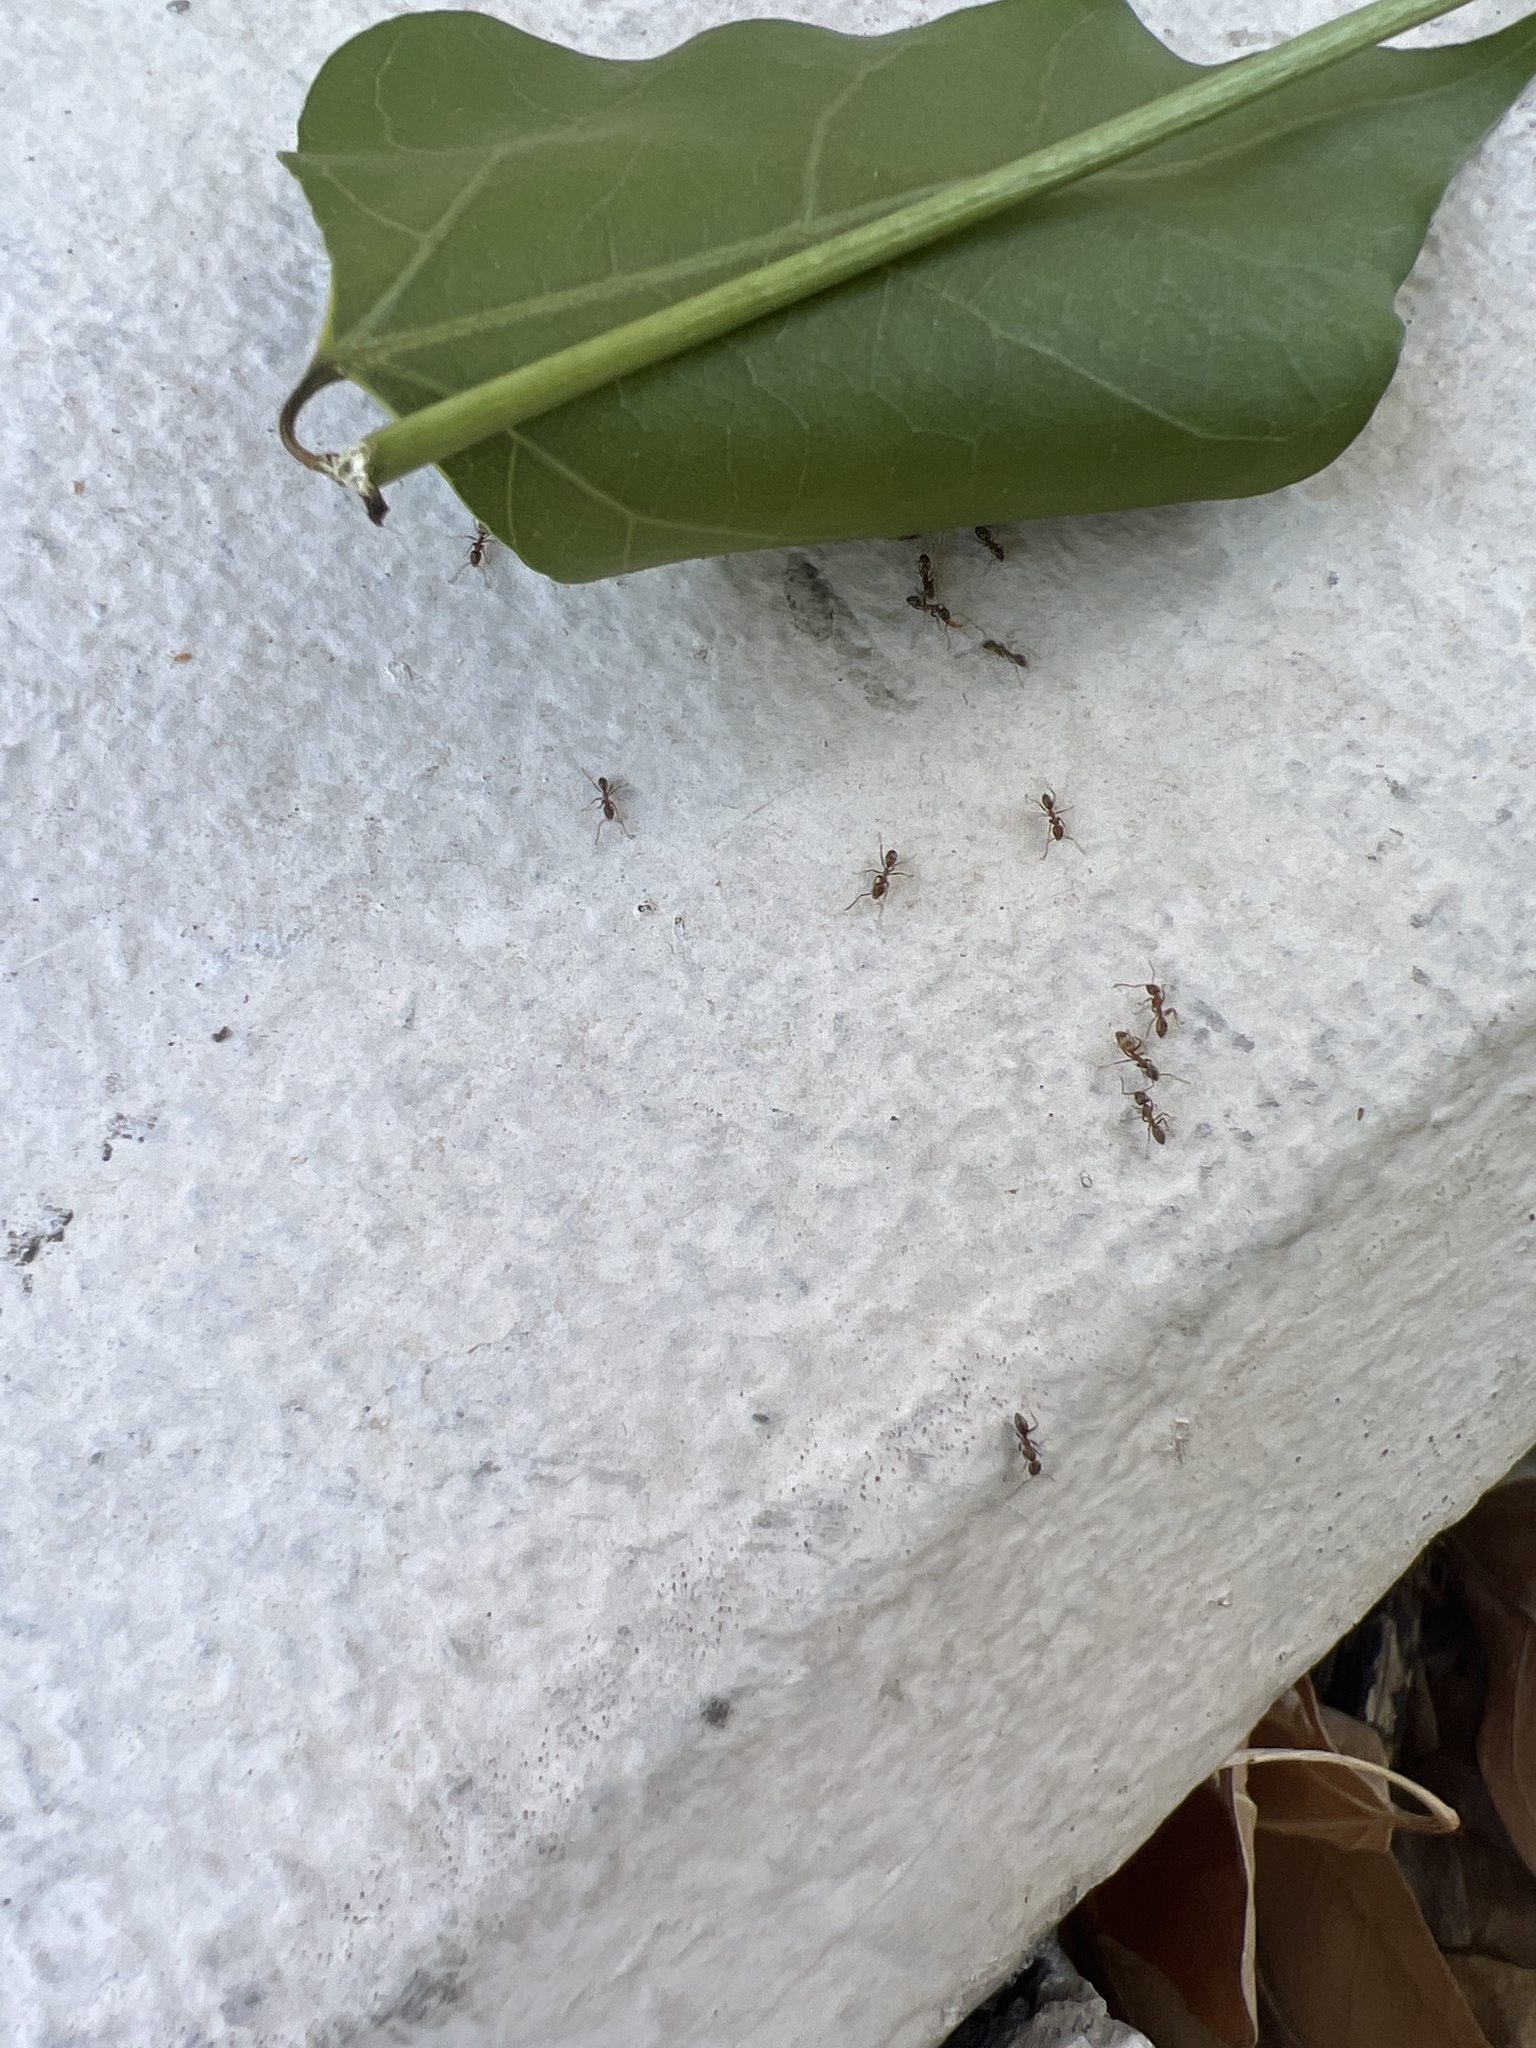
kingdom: Animalia
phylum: Arthropoda
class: Insecta
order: Hymenoptera
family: Formicidae
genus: Linepithema
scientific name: Linepithema humile
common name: Argentine ant
